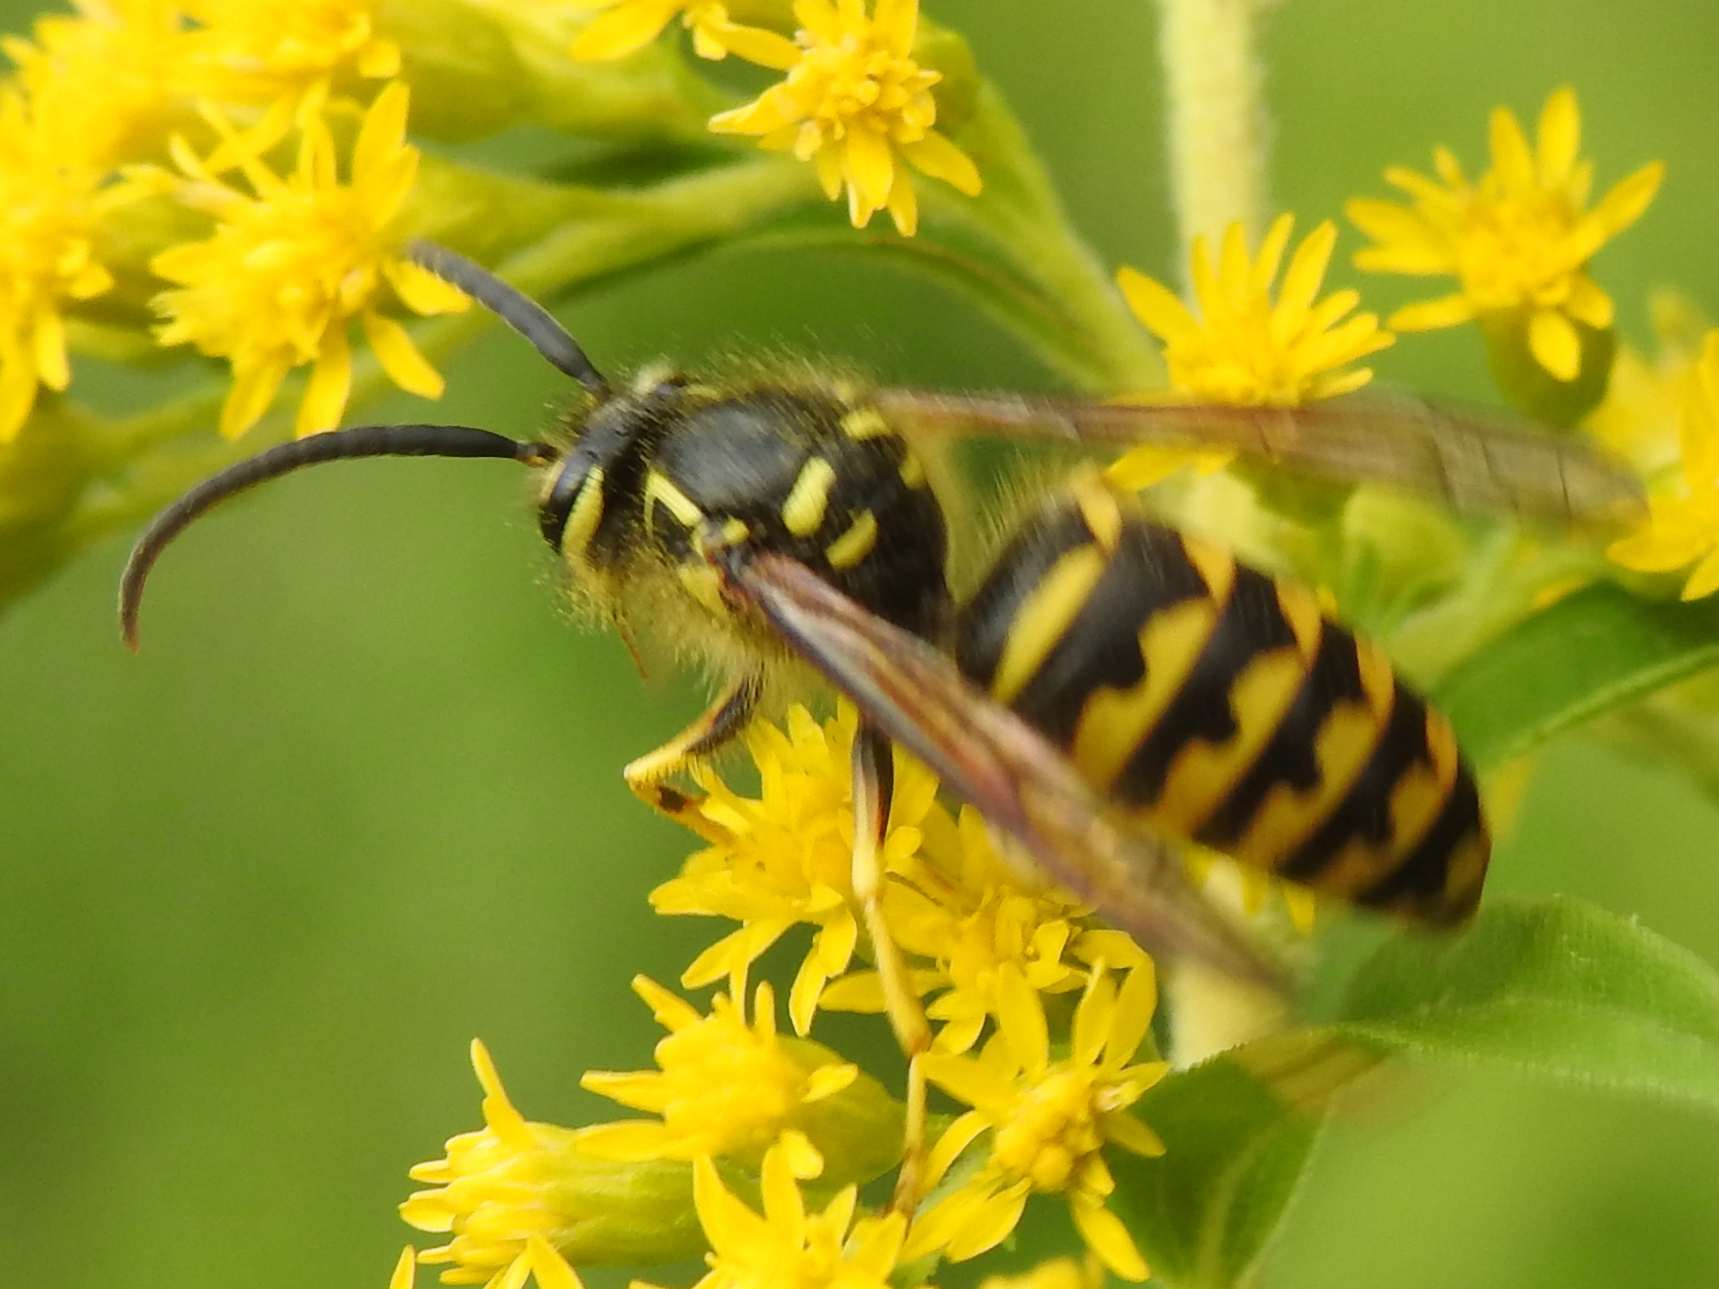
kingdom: Animalia
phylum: Arthropoda
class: Insecta
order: Hymenoptera
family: Vespidae
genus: Dolichovespula
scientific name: Dolichovespula arenaria
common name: Aerial yellowjacket
